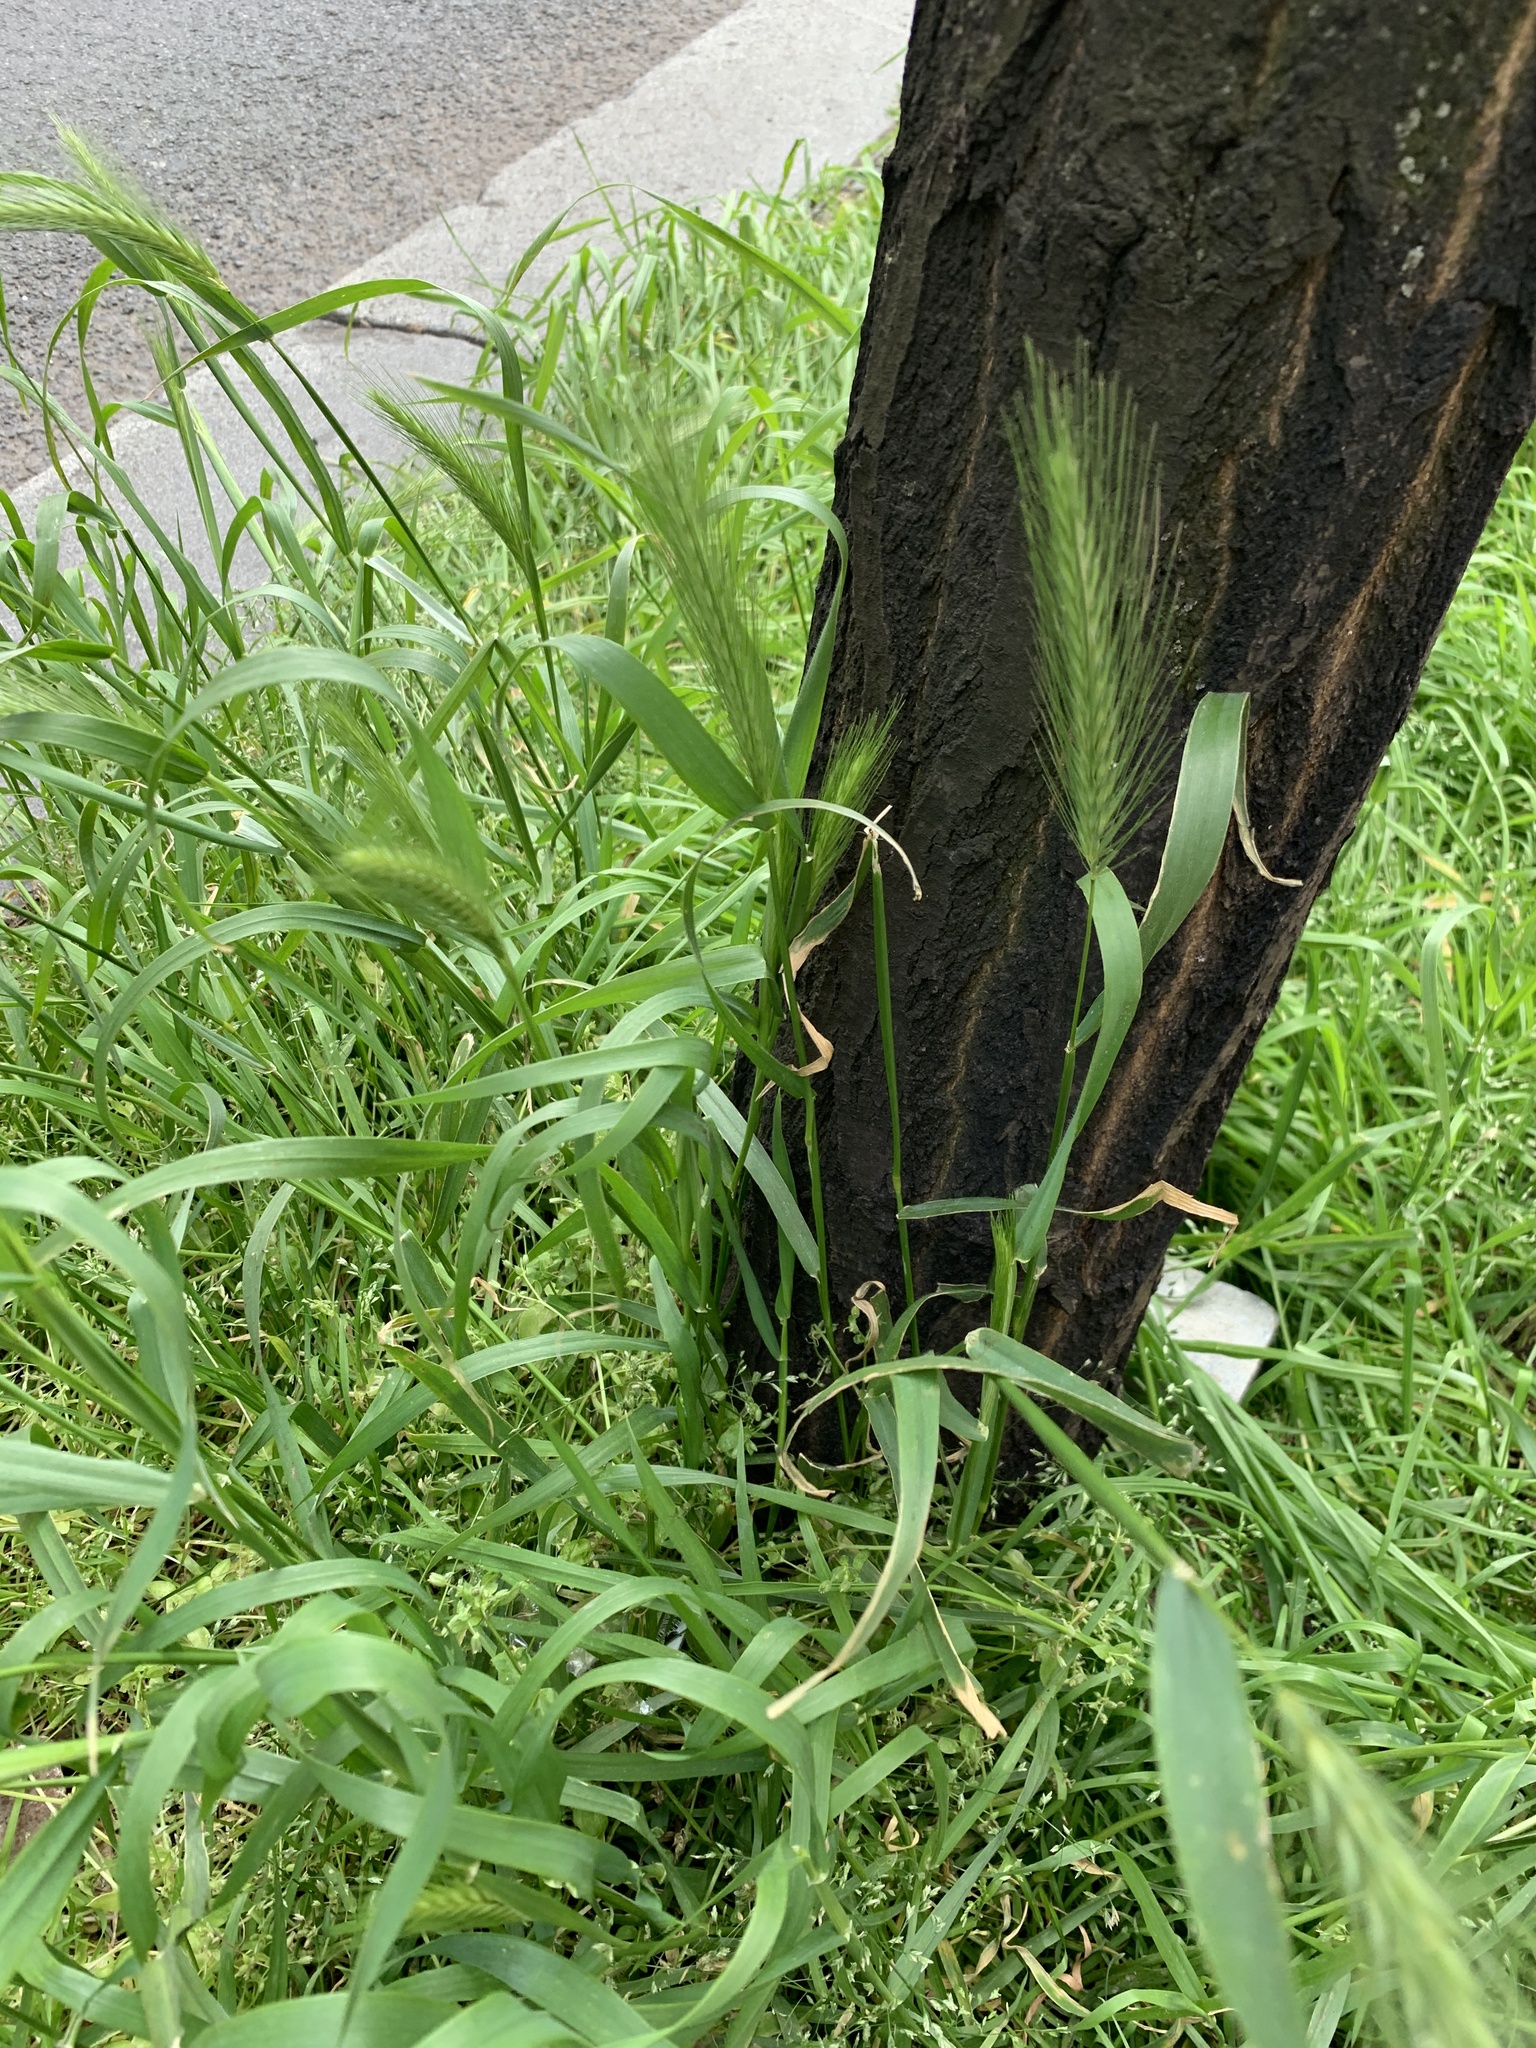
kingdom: Plantae
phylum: Tracheophyta
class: Liliopsida
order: Poales
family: Poaceae
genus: Hordeum
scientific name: Hordeum murinum
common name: Wall barley
